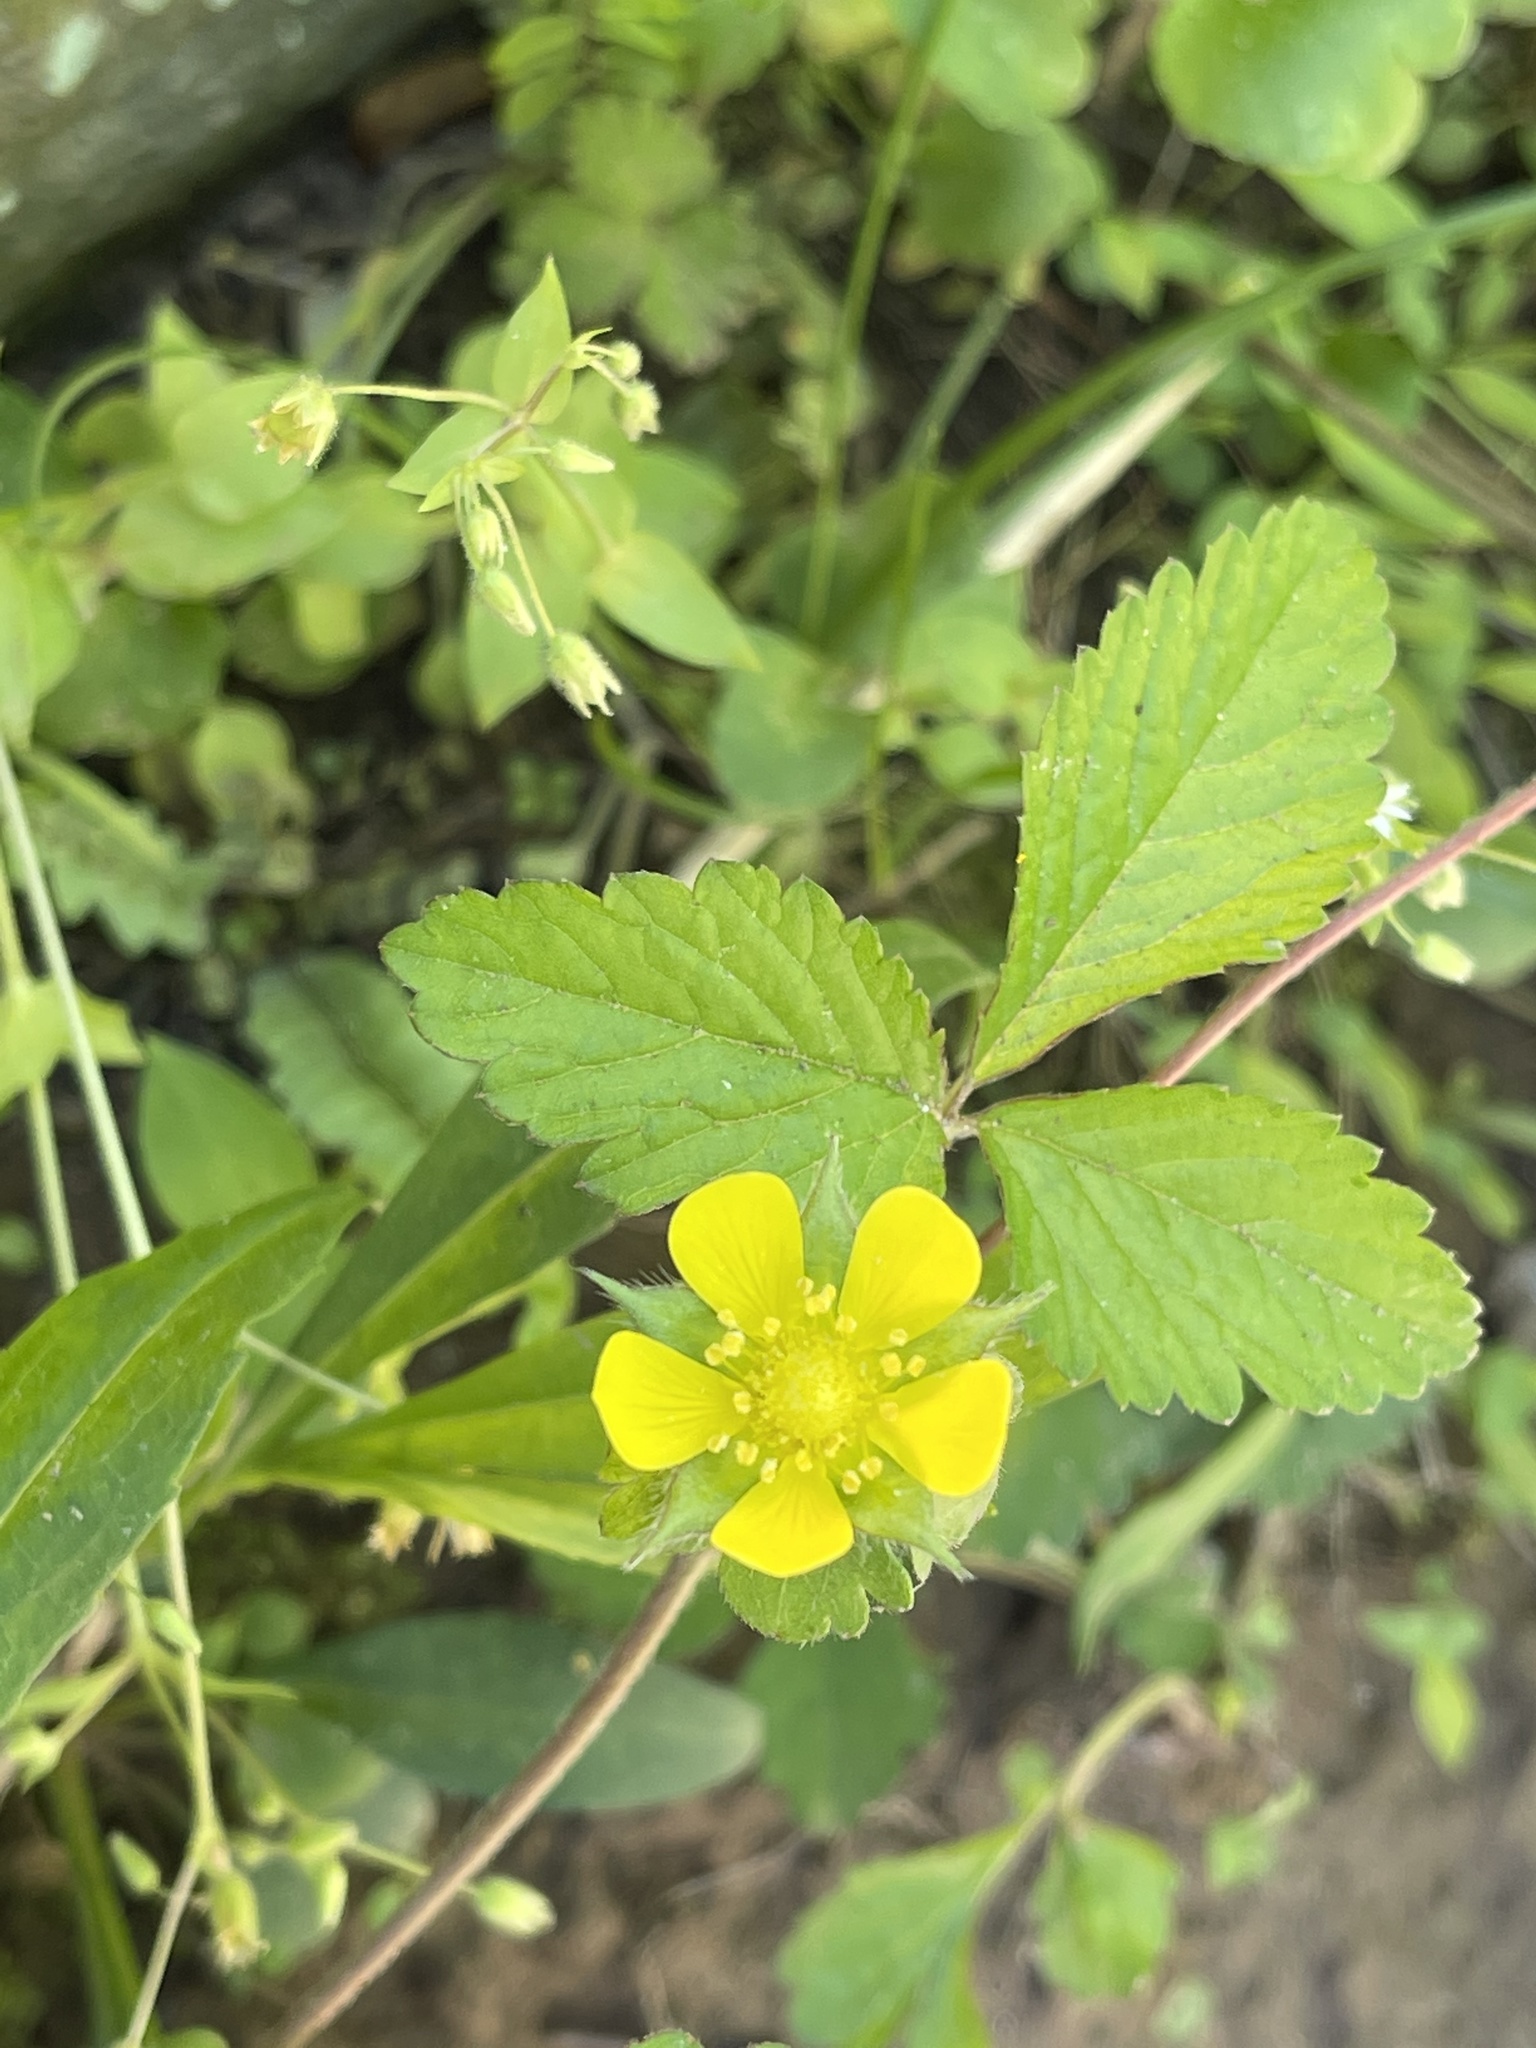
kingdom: Plantae
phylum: Tracheophyta
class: Magnoliopsida
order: Rosales
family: Rosaceae
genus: Potentilla
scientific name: Potentilla indica
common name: Yellow-flowered strawberry
